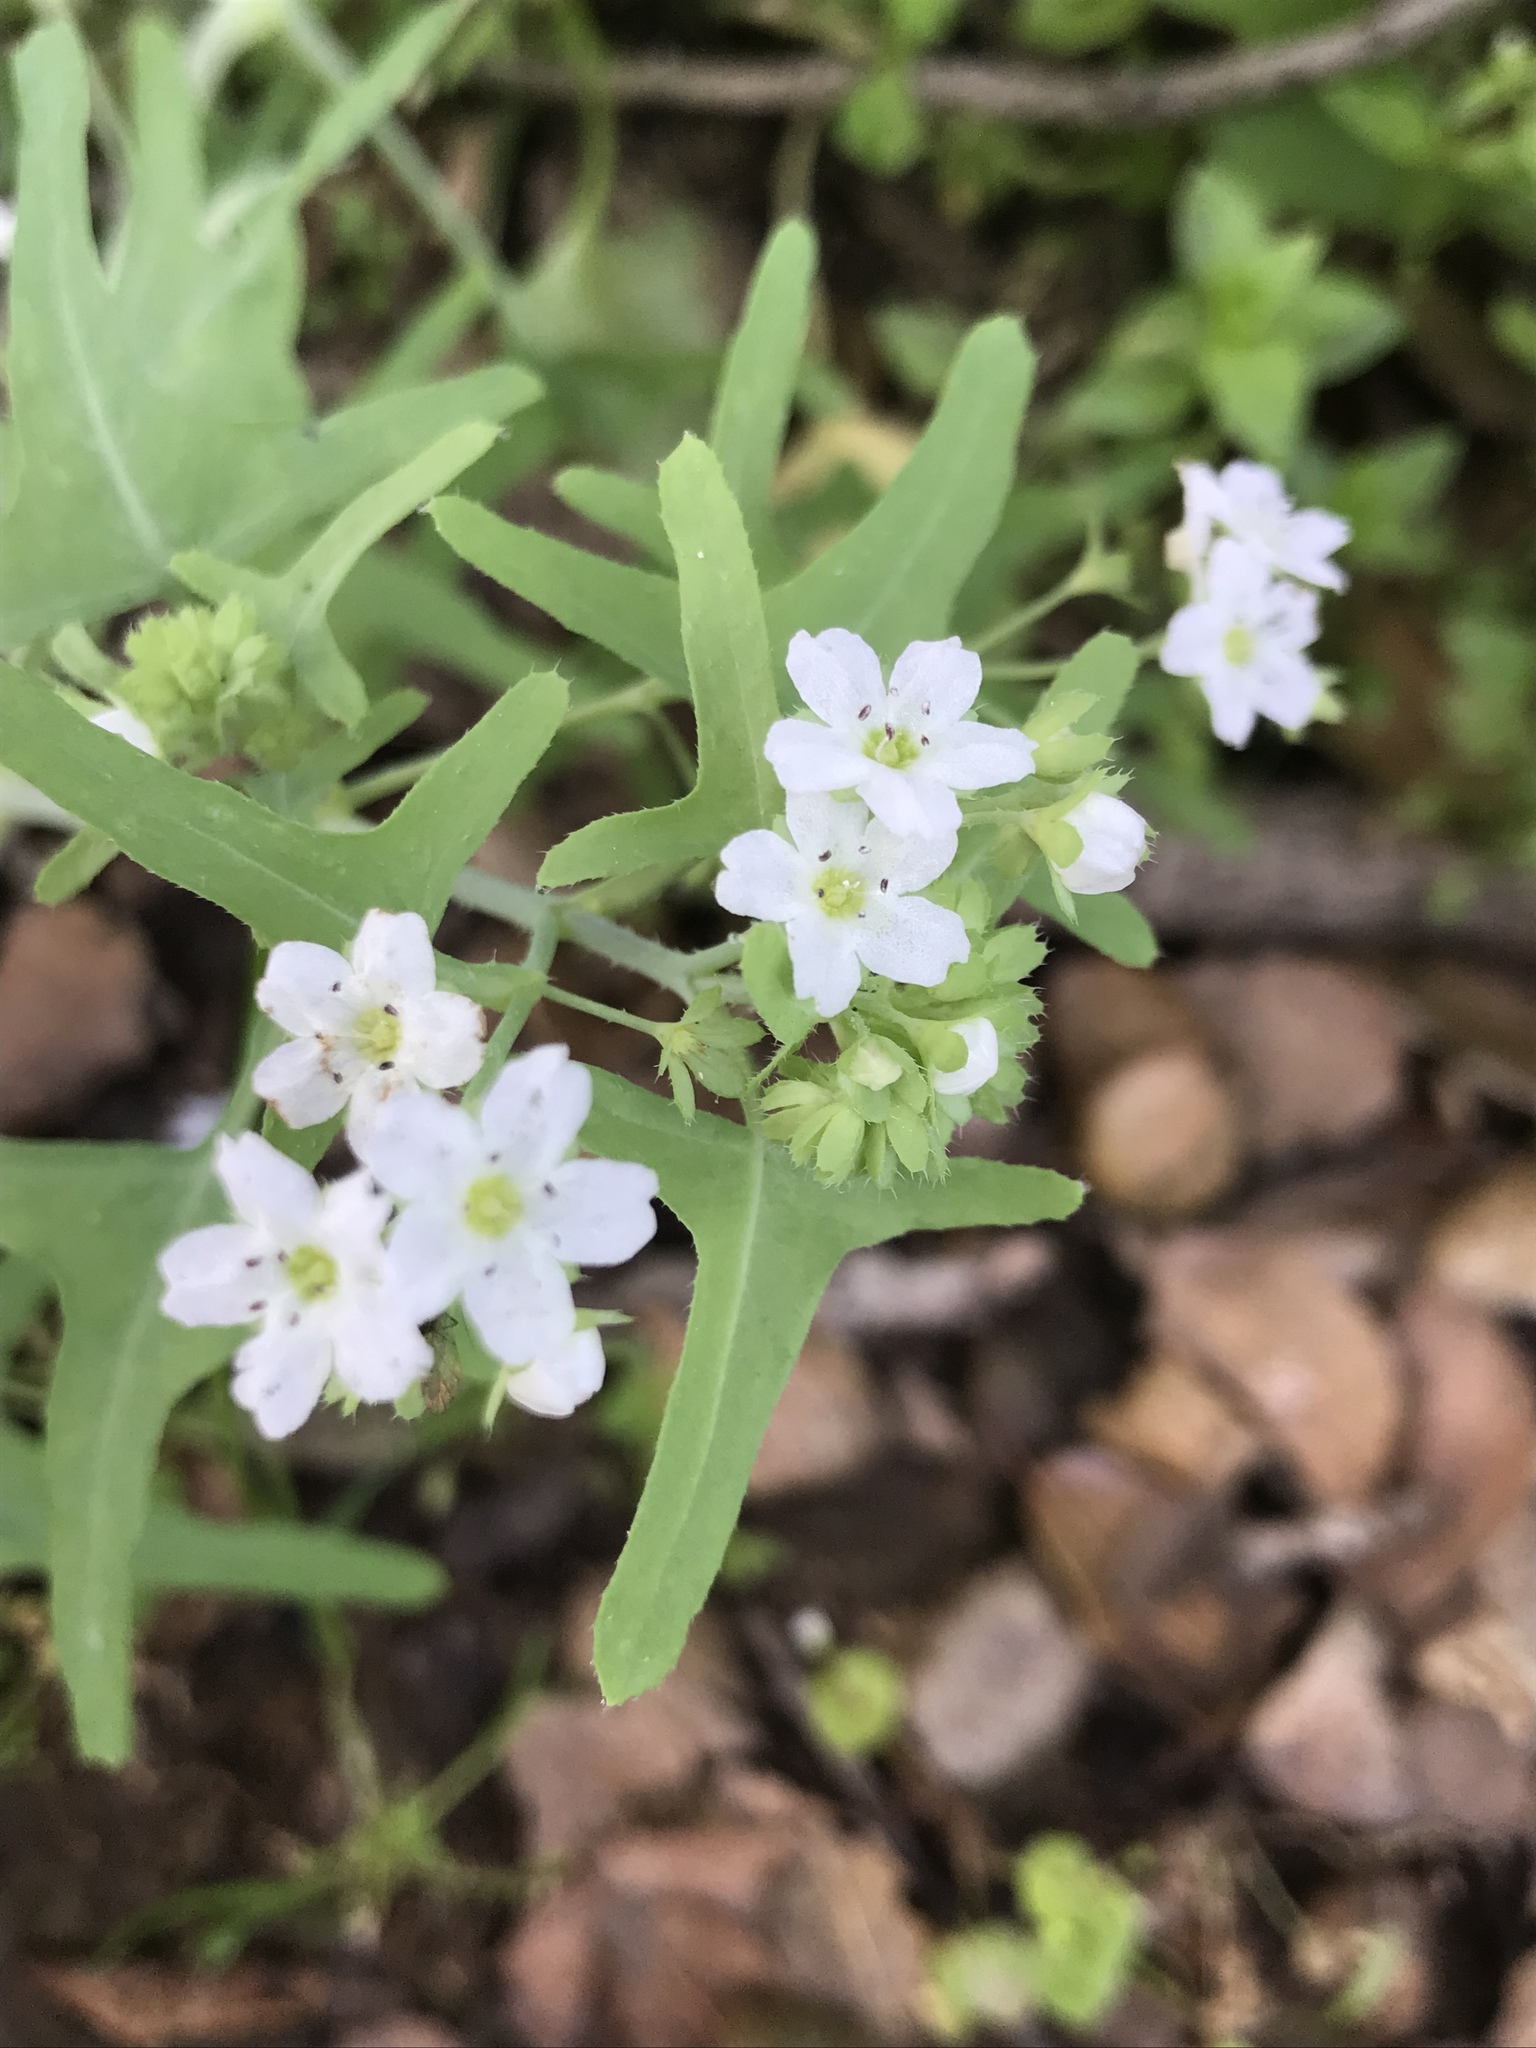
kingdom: Plantae
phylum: Tracheophyta
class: Magnoliopsida
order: Boraginales
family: Hydrophyllaceae
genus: Pholistoma
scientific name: Pholistoma membranaceum
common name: White fiesta-flower
